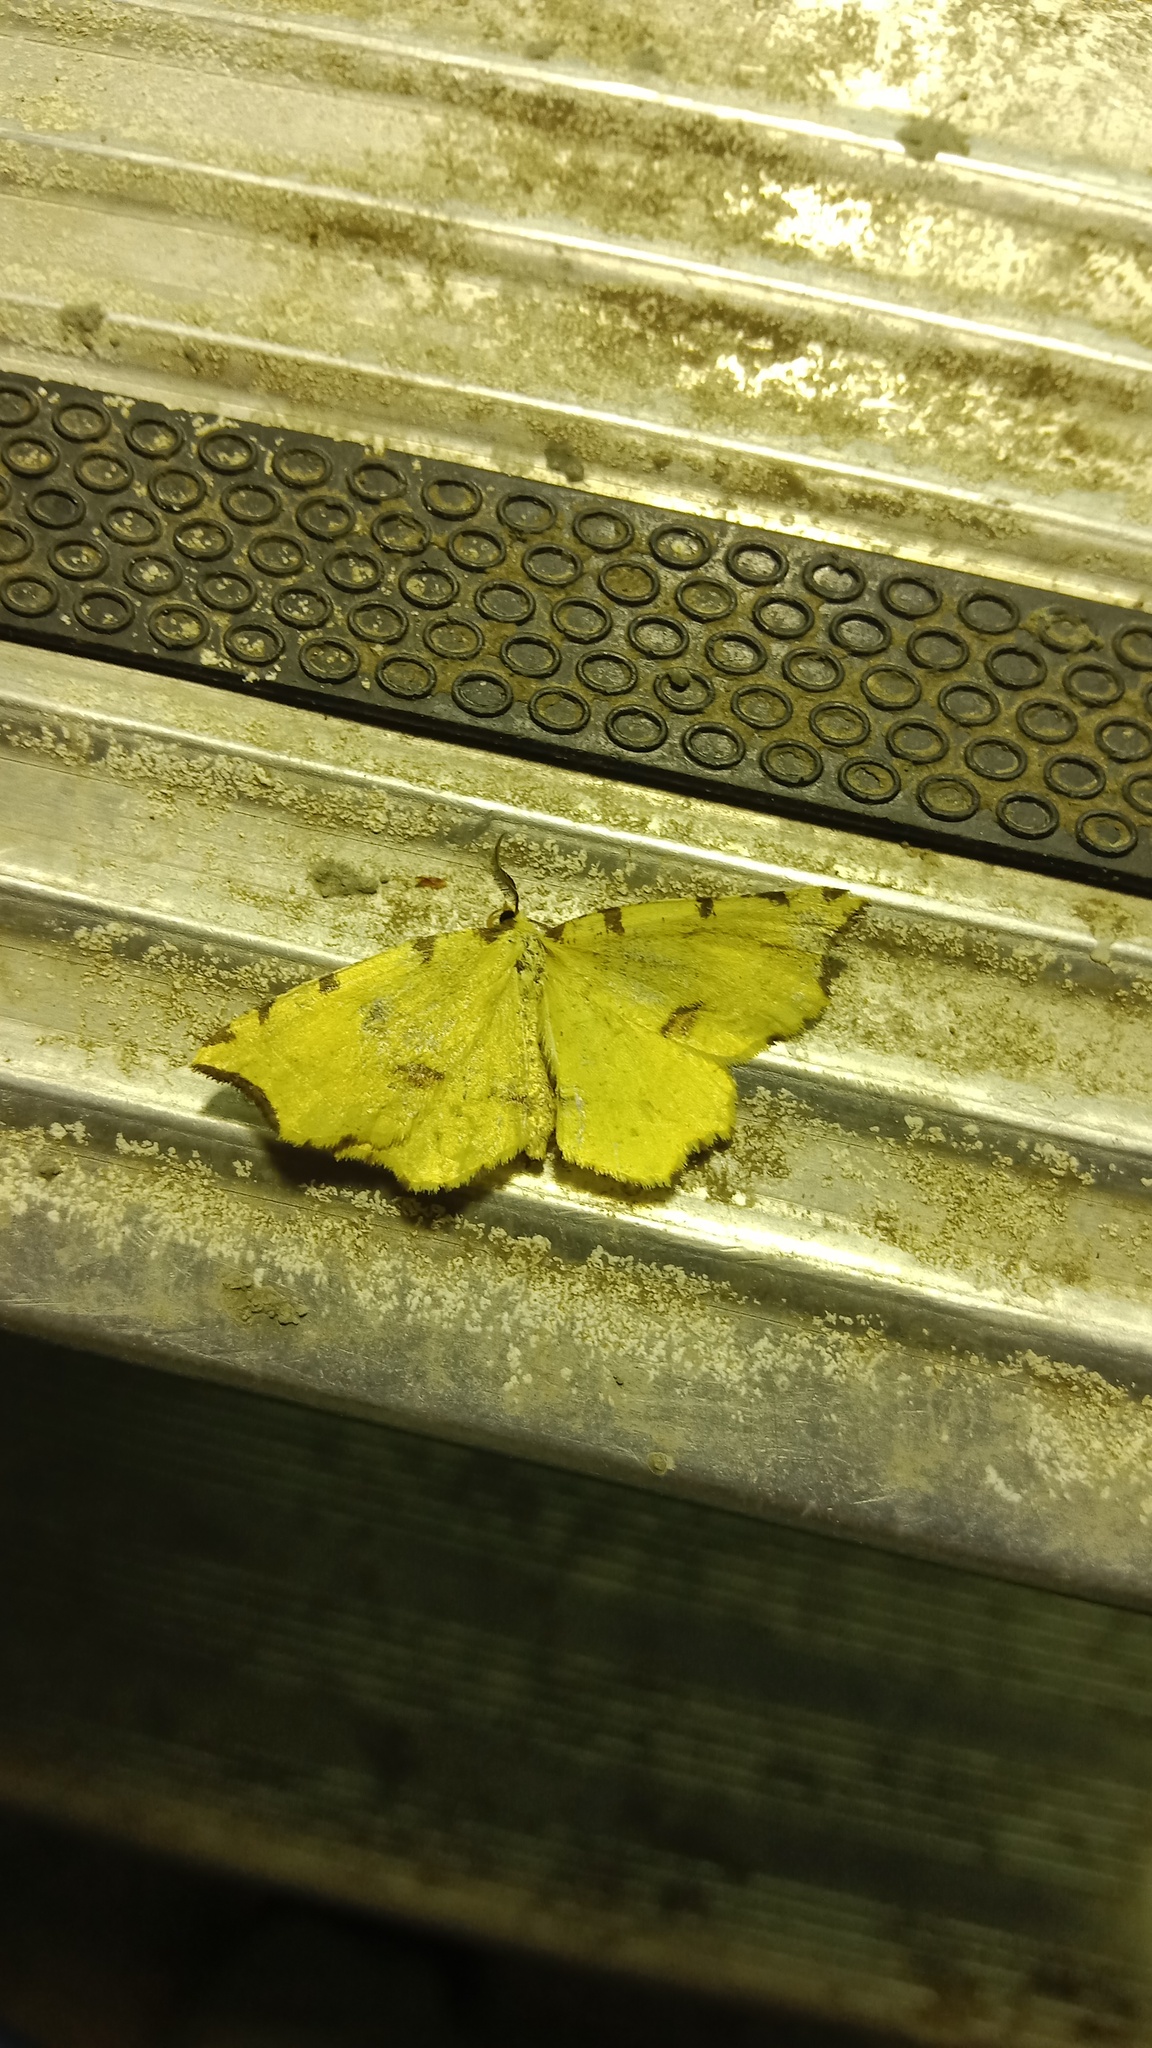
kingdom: Animalia
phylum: Arthropoda
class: Insecta
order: Lepidoptera
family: Geometridae
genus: Therapis
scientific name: Therapis flavicaria
